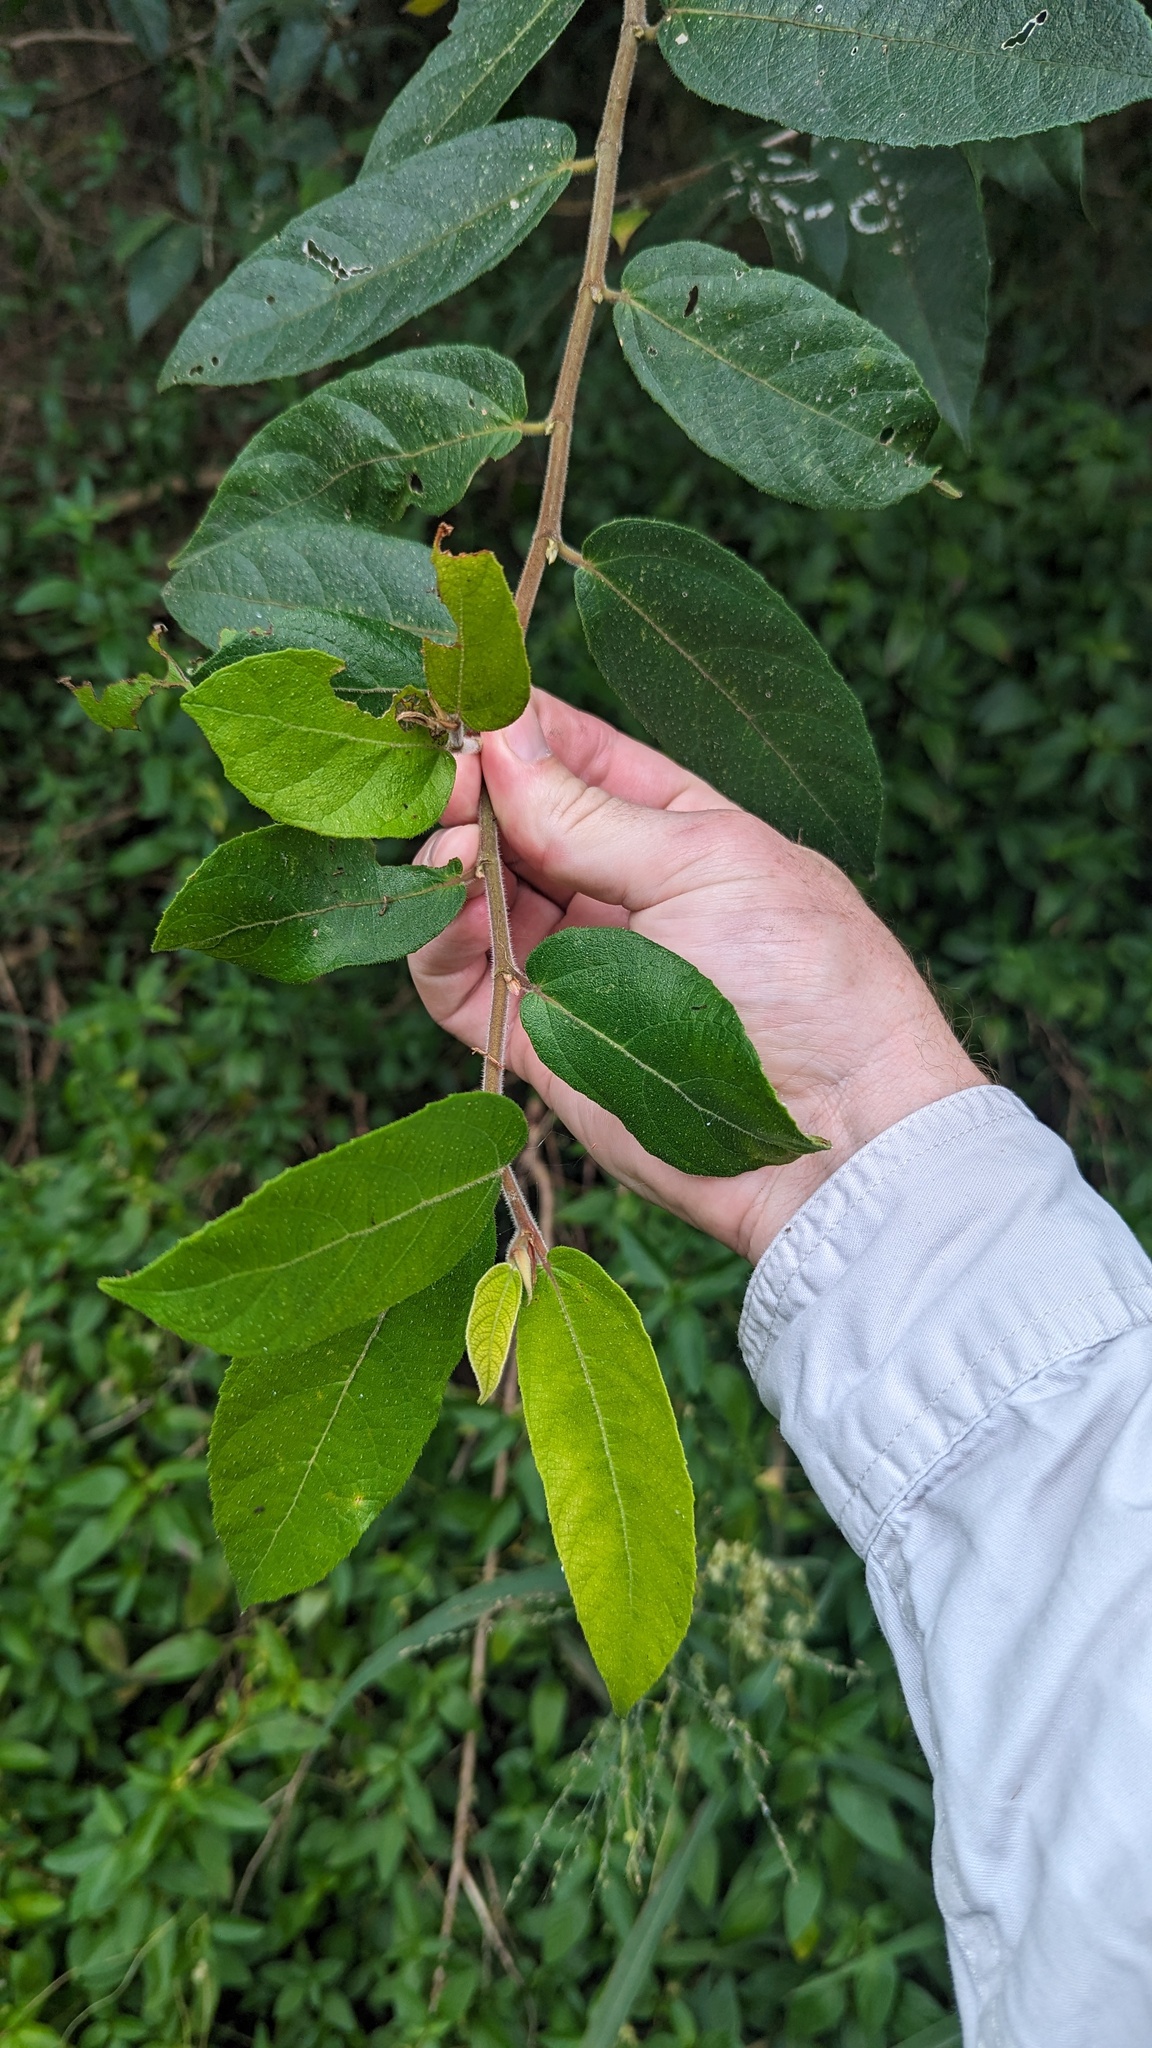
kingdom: Plantae
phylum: Tracheophyta
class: Magnoliopsida
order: Rosales
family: Moraceae
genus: Ficus
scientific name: Ficus coronata
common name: Creek sandpaper fig
